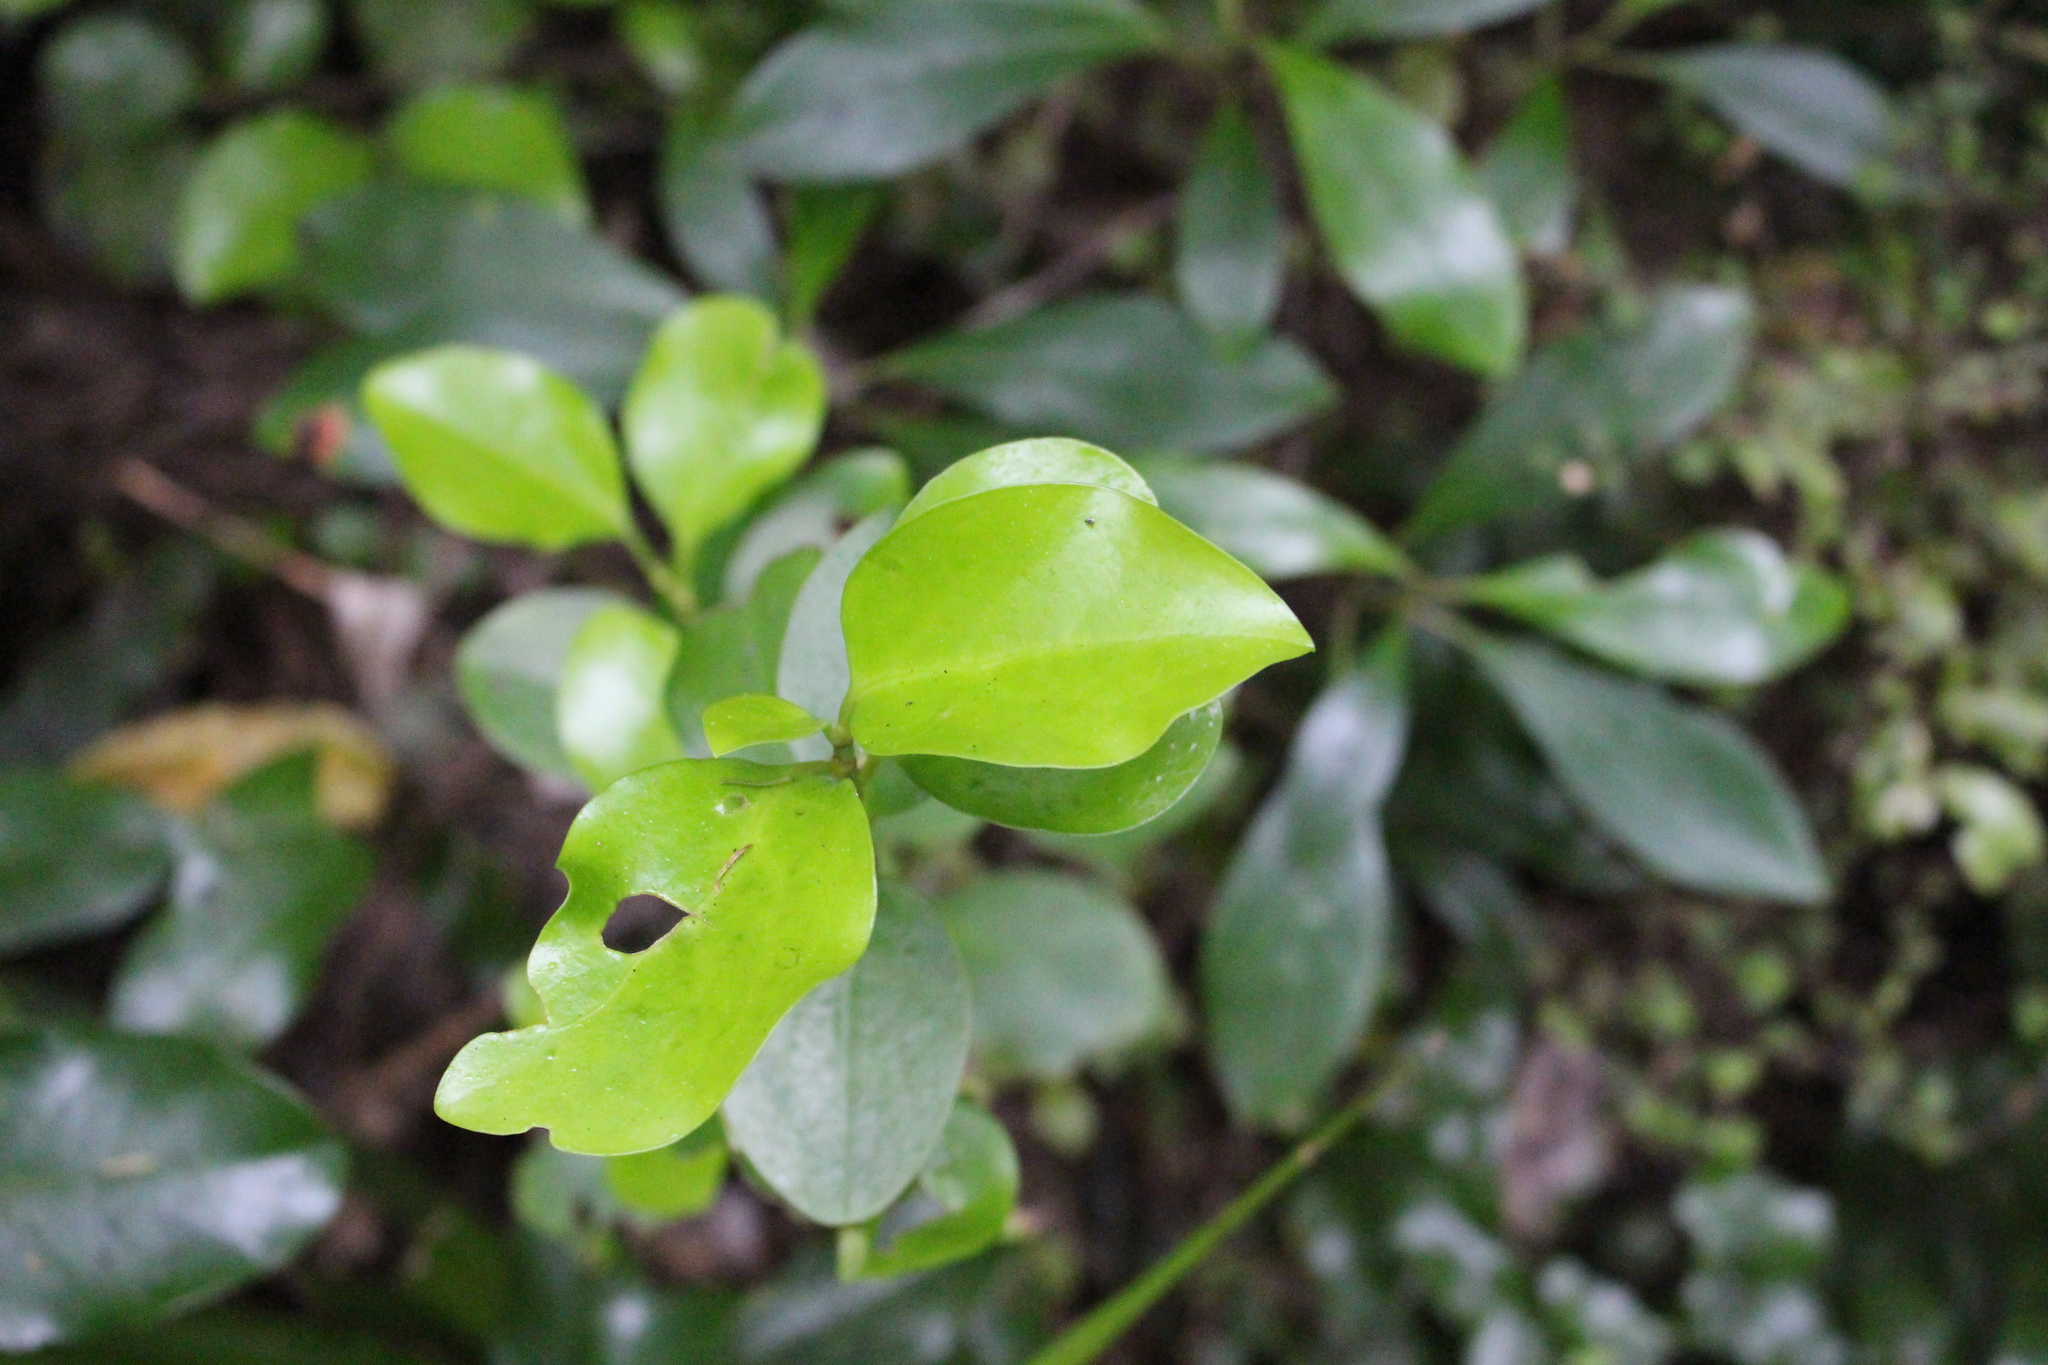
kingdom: Plantae
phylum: Tracheophyta
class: Magnoliopsida
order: Apiales
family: Griseliniaceae
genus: Griselinia
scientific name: Griselinia littoralis
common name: New zealand broadleaf
